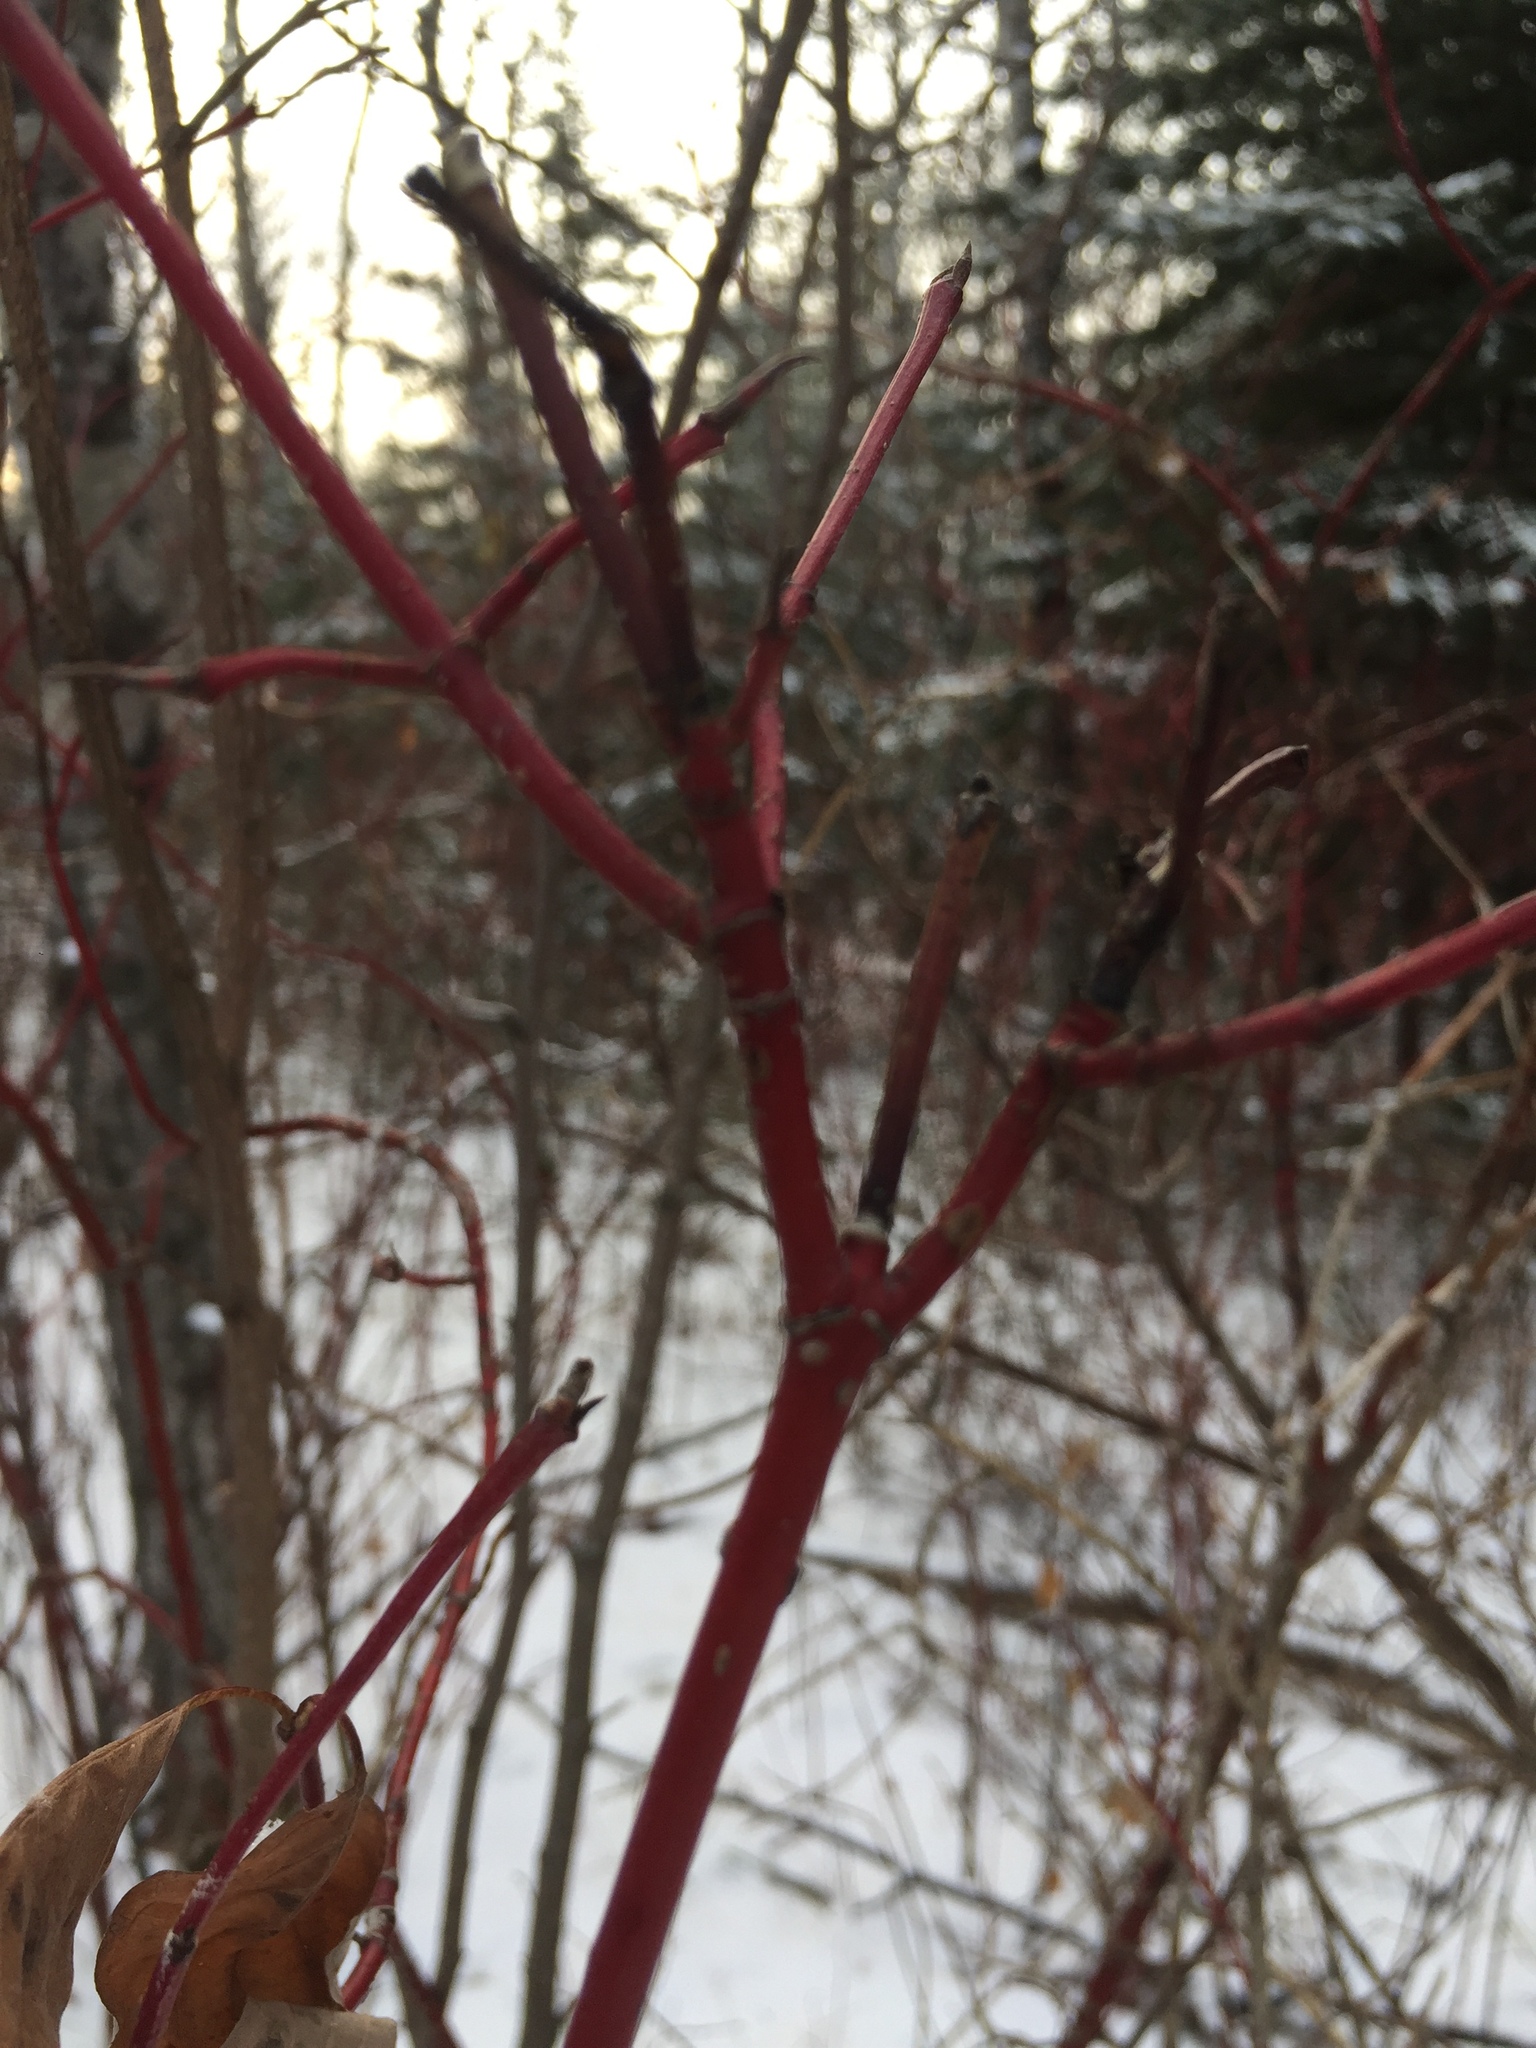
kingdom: Plantae
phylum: Tracheophyta
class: Magnoliopsida
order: Cornales
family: Cornaceae
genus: Cornus
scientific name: Cornus sericea
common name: Red-osier dogwood
